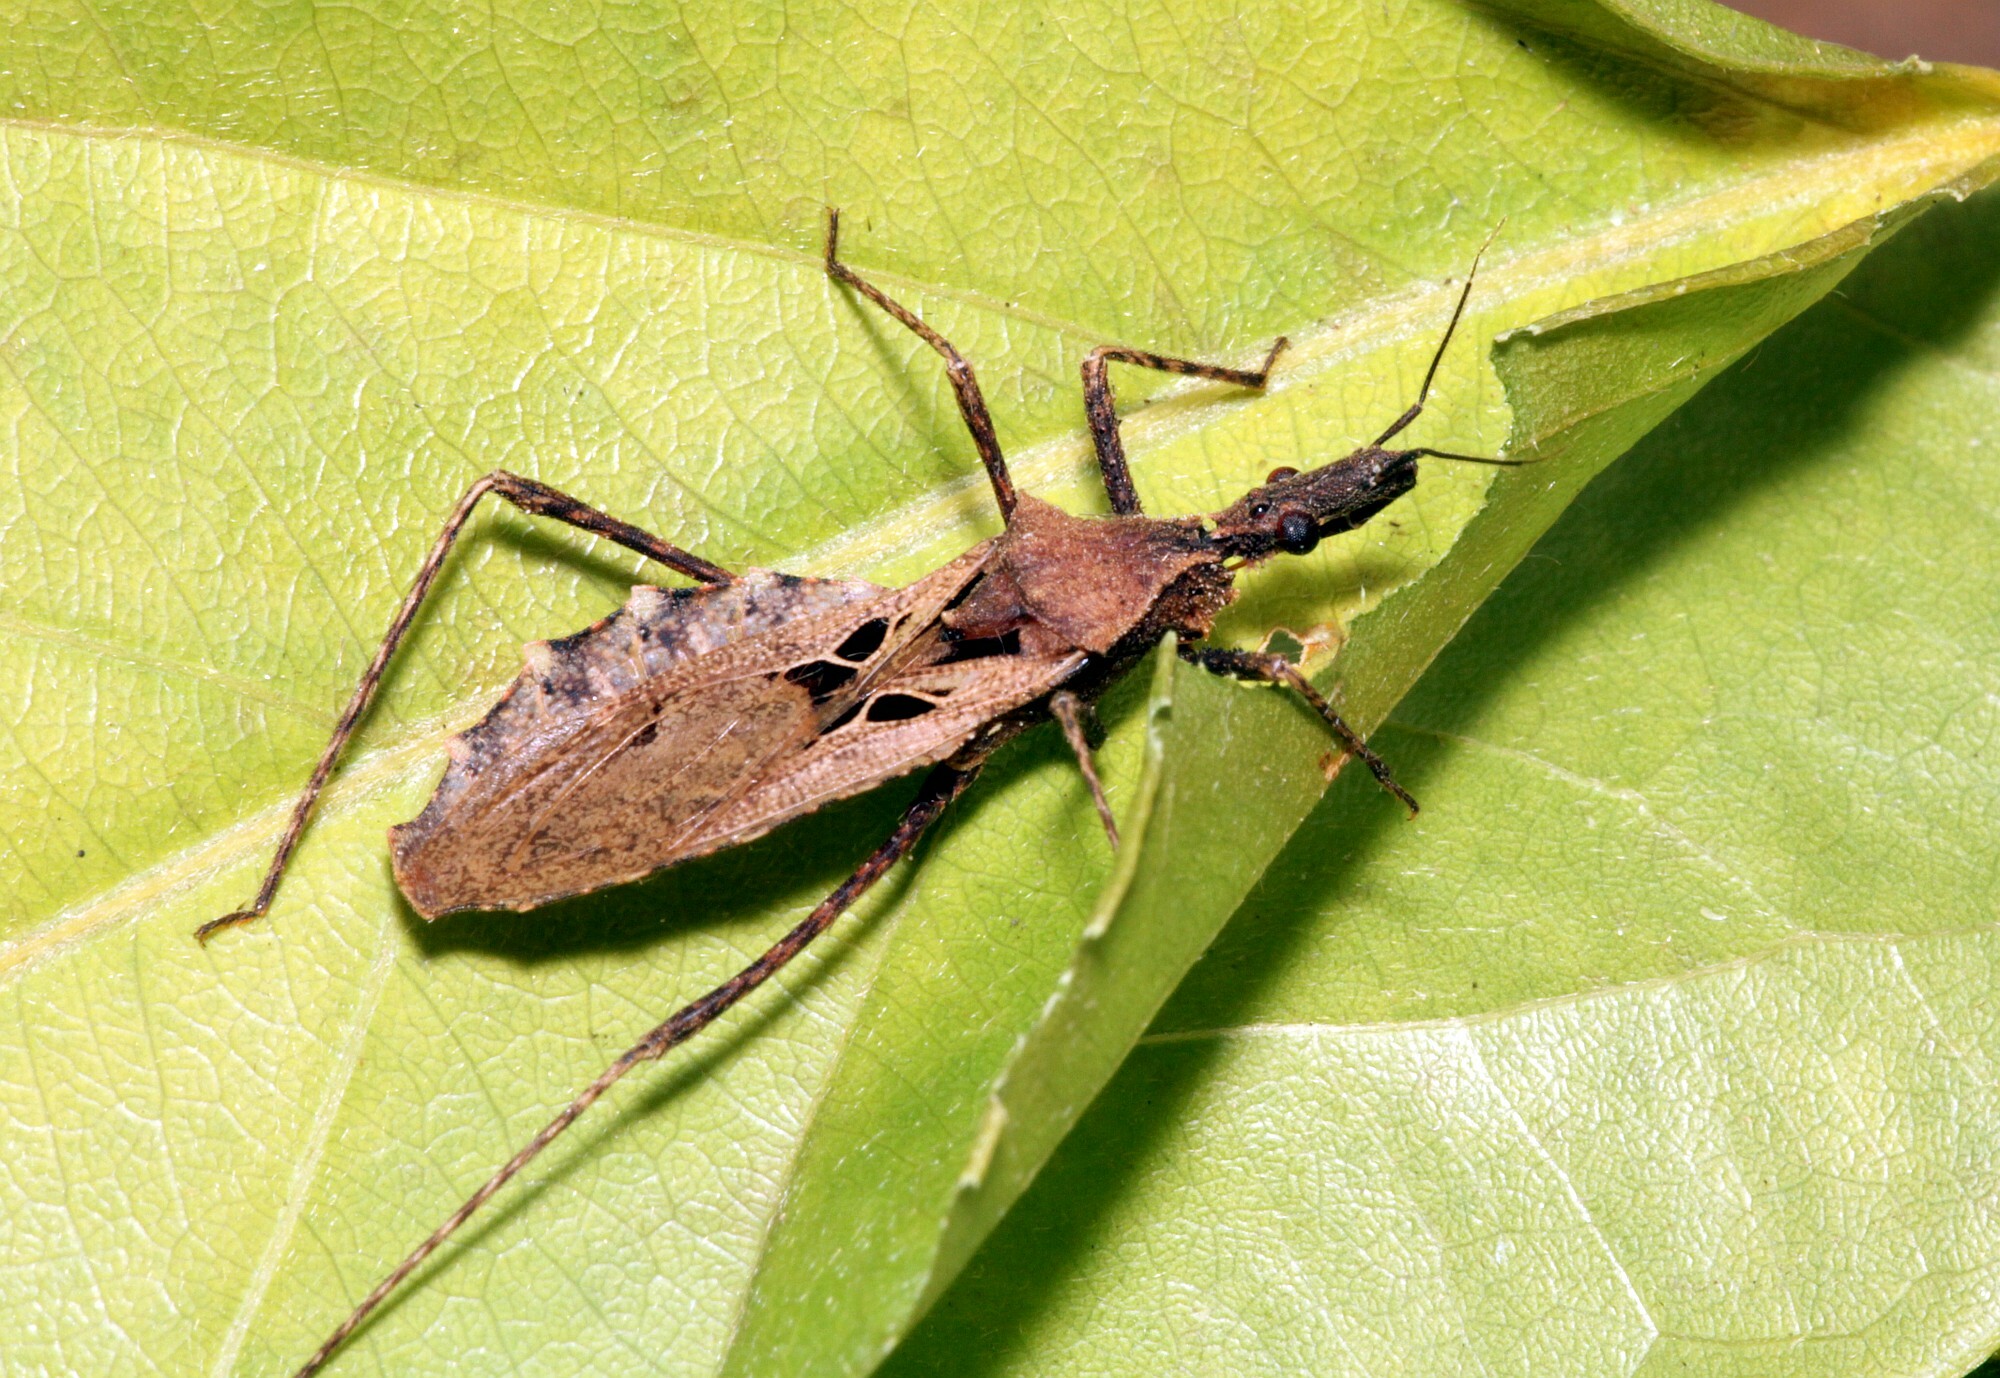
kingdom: Animalia
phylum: Arthropoda
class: Insecta
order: Hemiptera
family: Reduviidae
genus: Nitornus
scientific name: Nitornus parkoi
